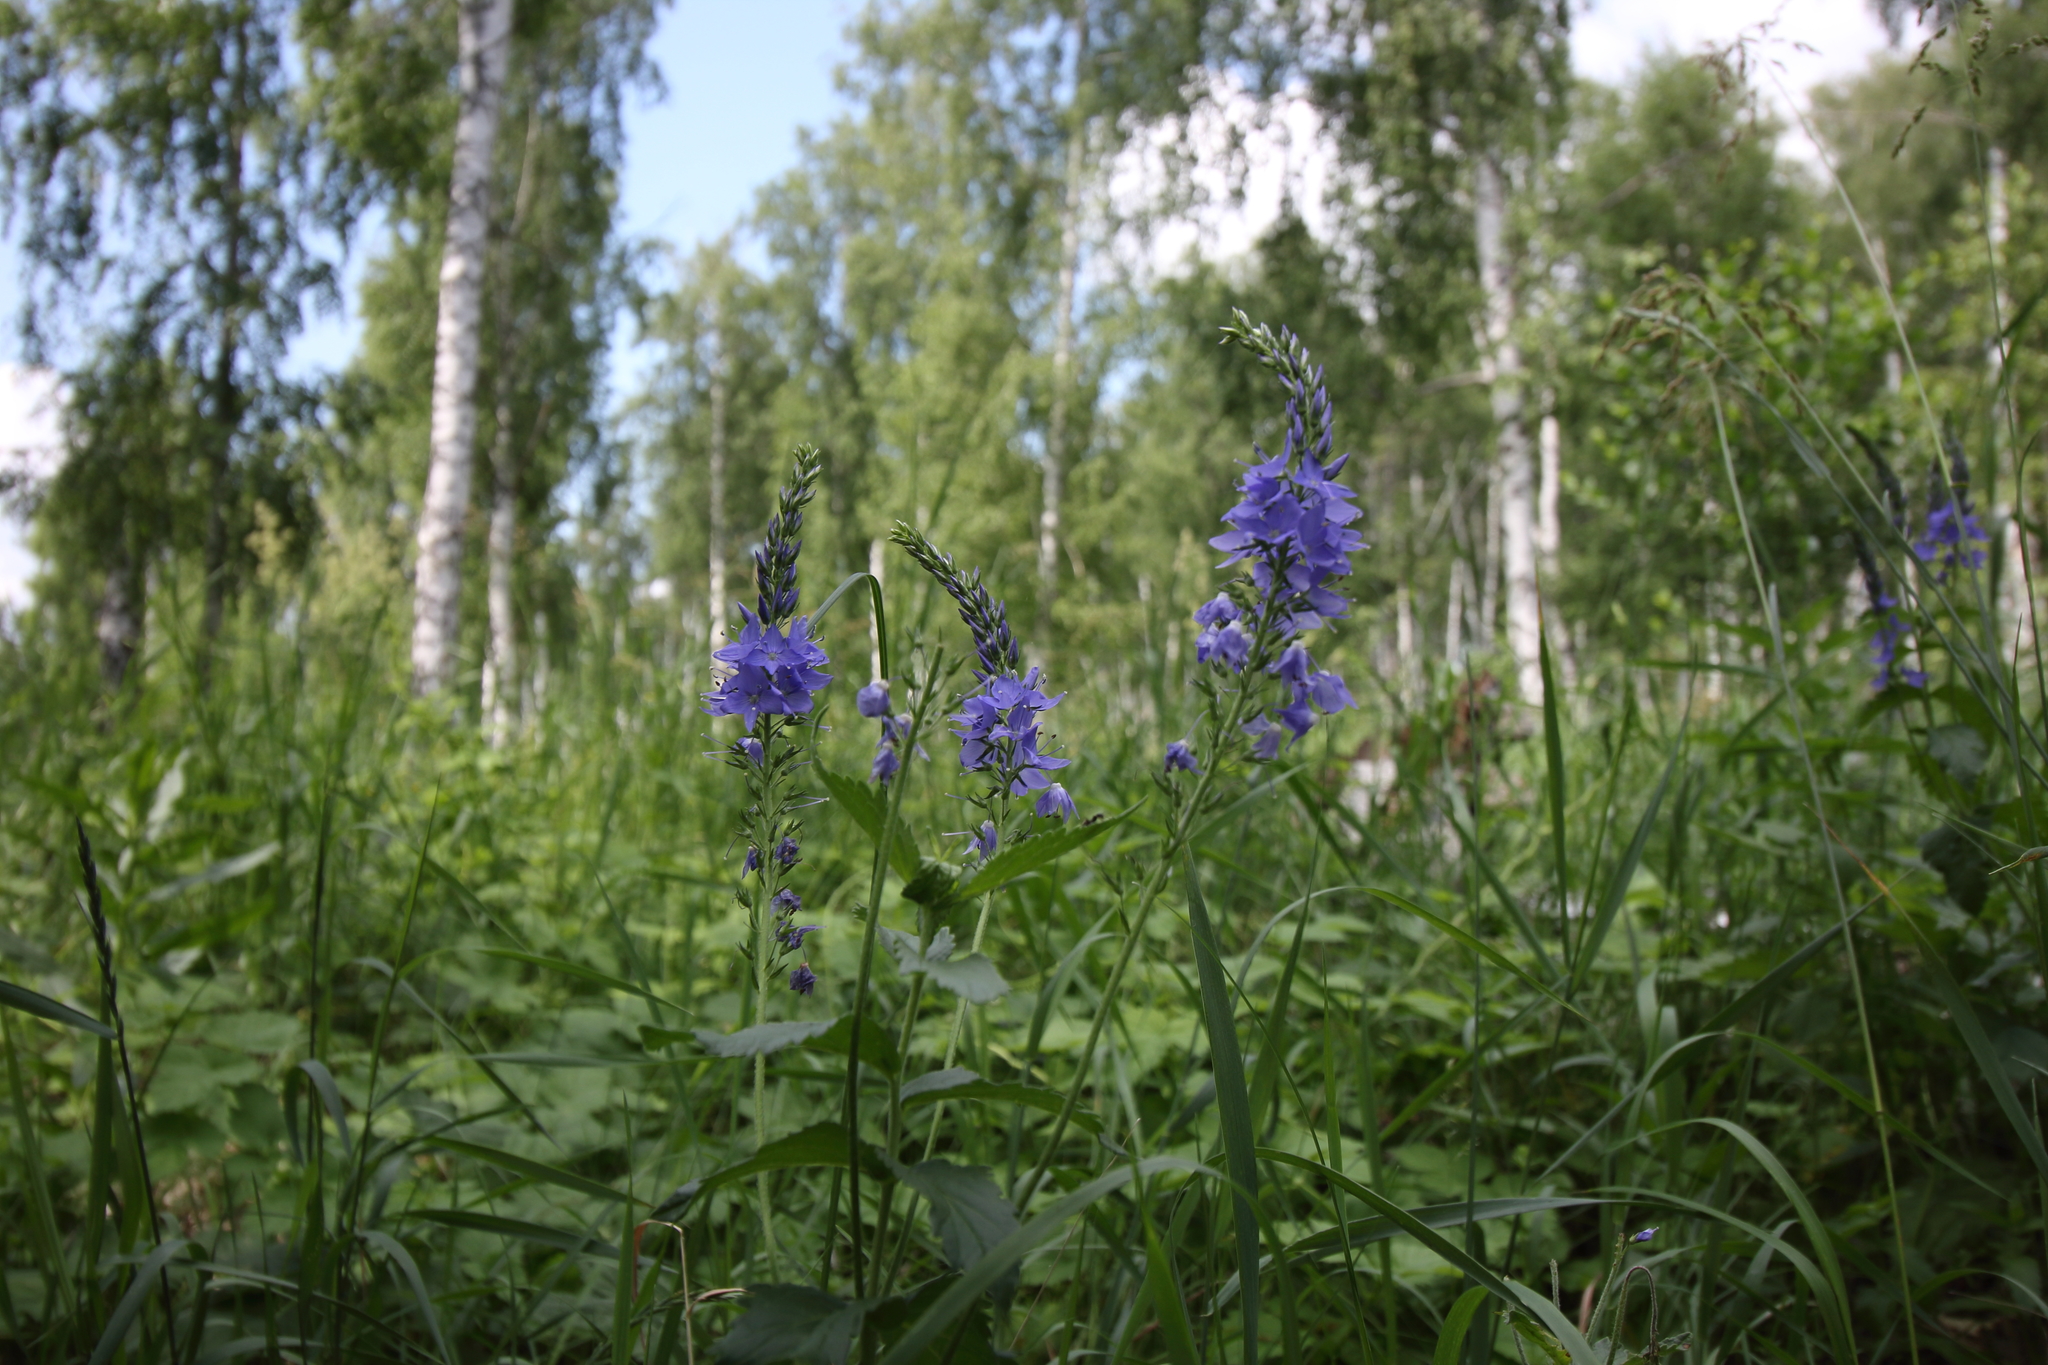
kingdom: Plantae
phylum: Tracheophyta
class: Magnoliopsida
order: Lamiales
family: Plantaginaceae
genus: Veronica
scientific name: Veronica teucrium
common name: Large speedwell
